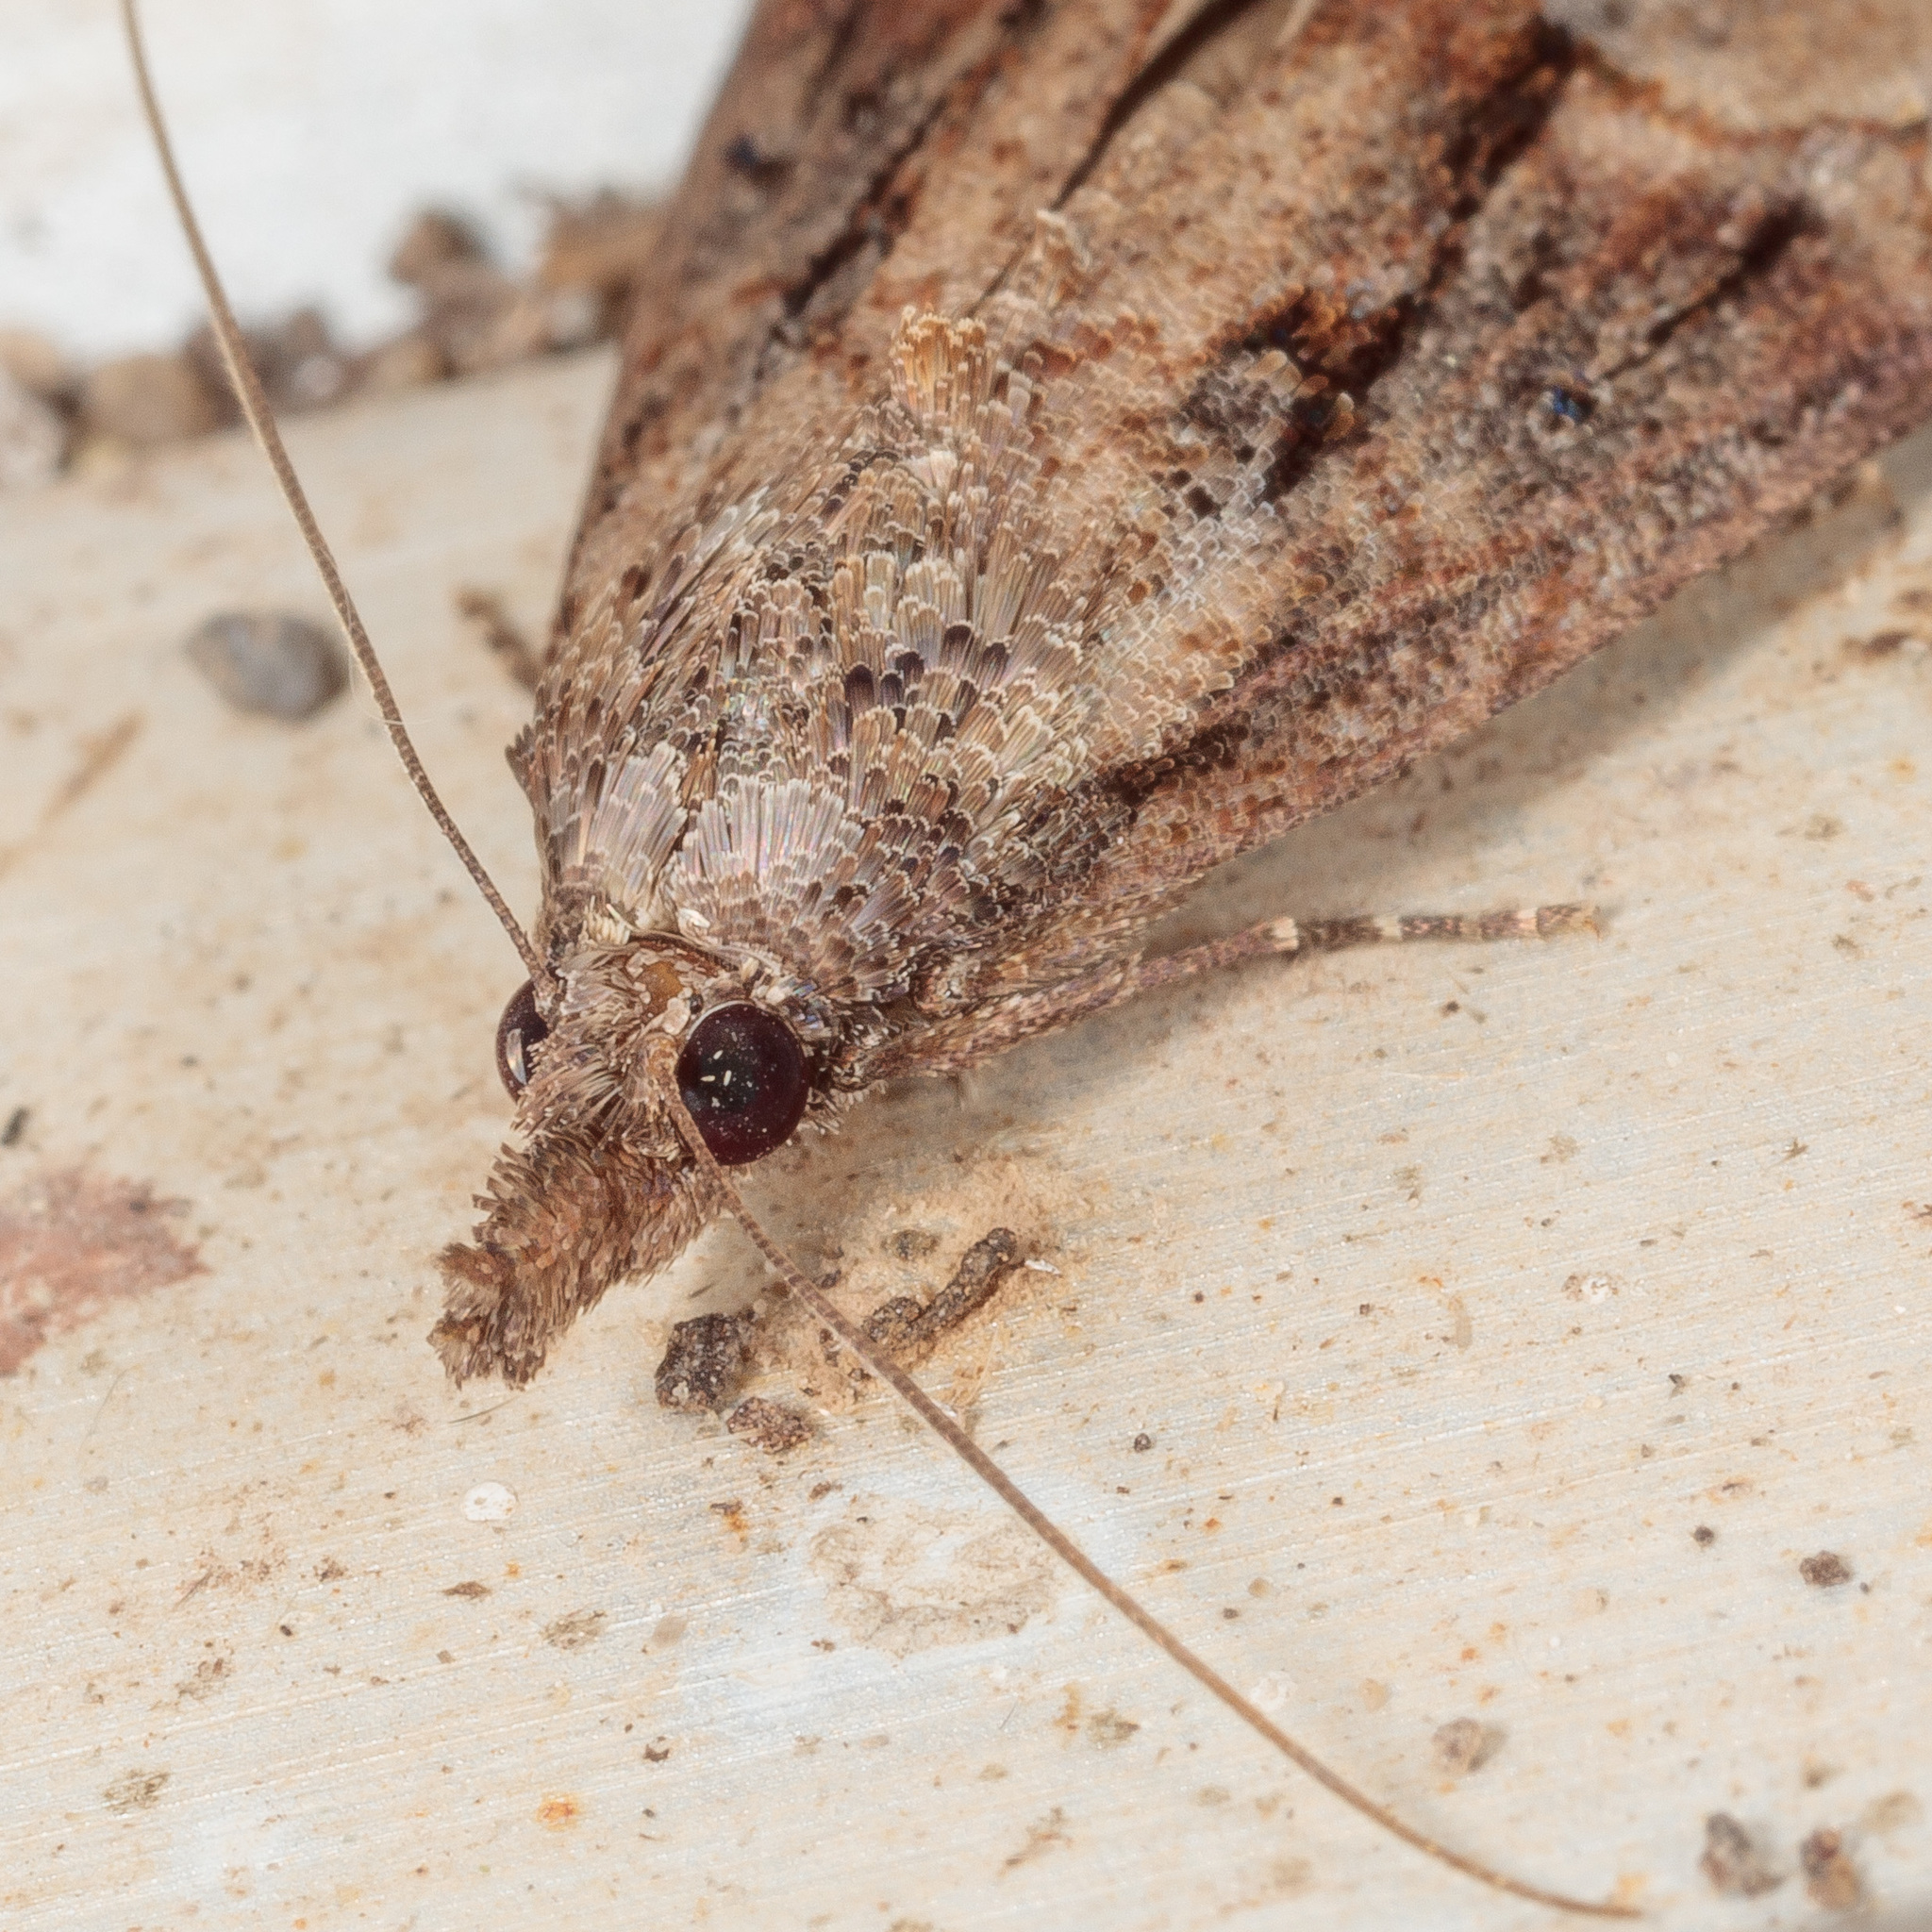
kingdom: Animalia
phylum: Arthropoda
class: Insecta
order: Lepidoptera
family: Erebidae
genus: Hypena
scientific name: Hypena scabra
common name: Green cloverworm
